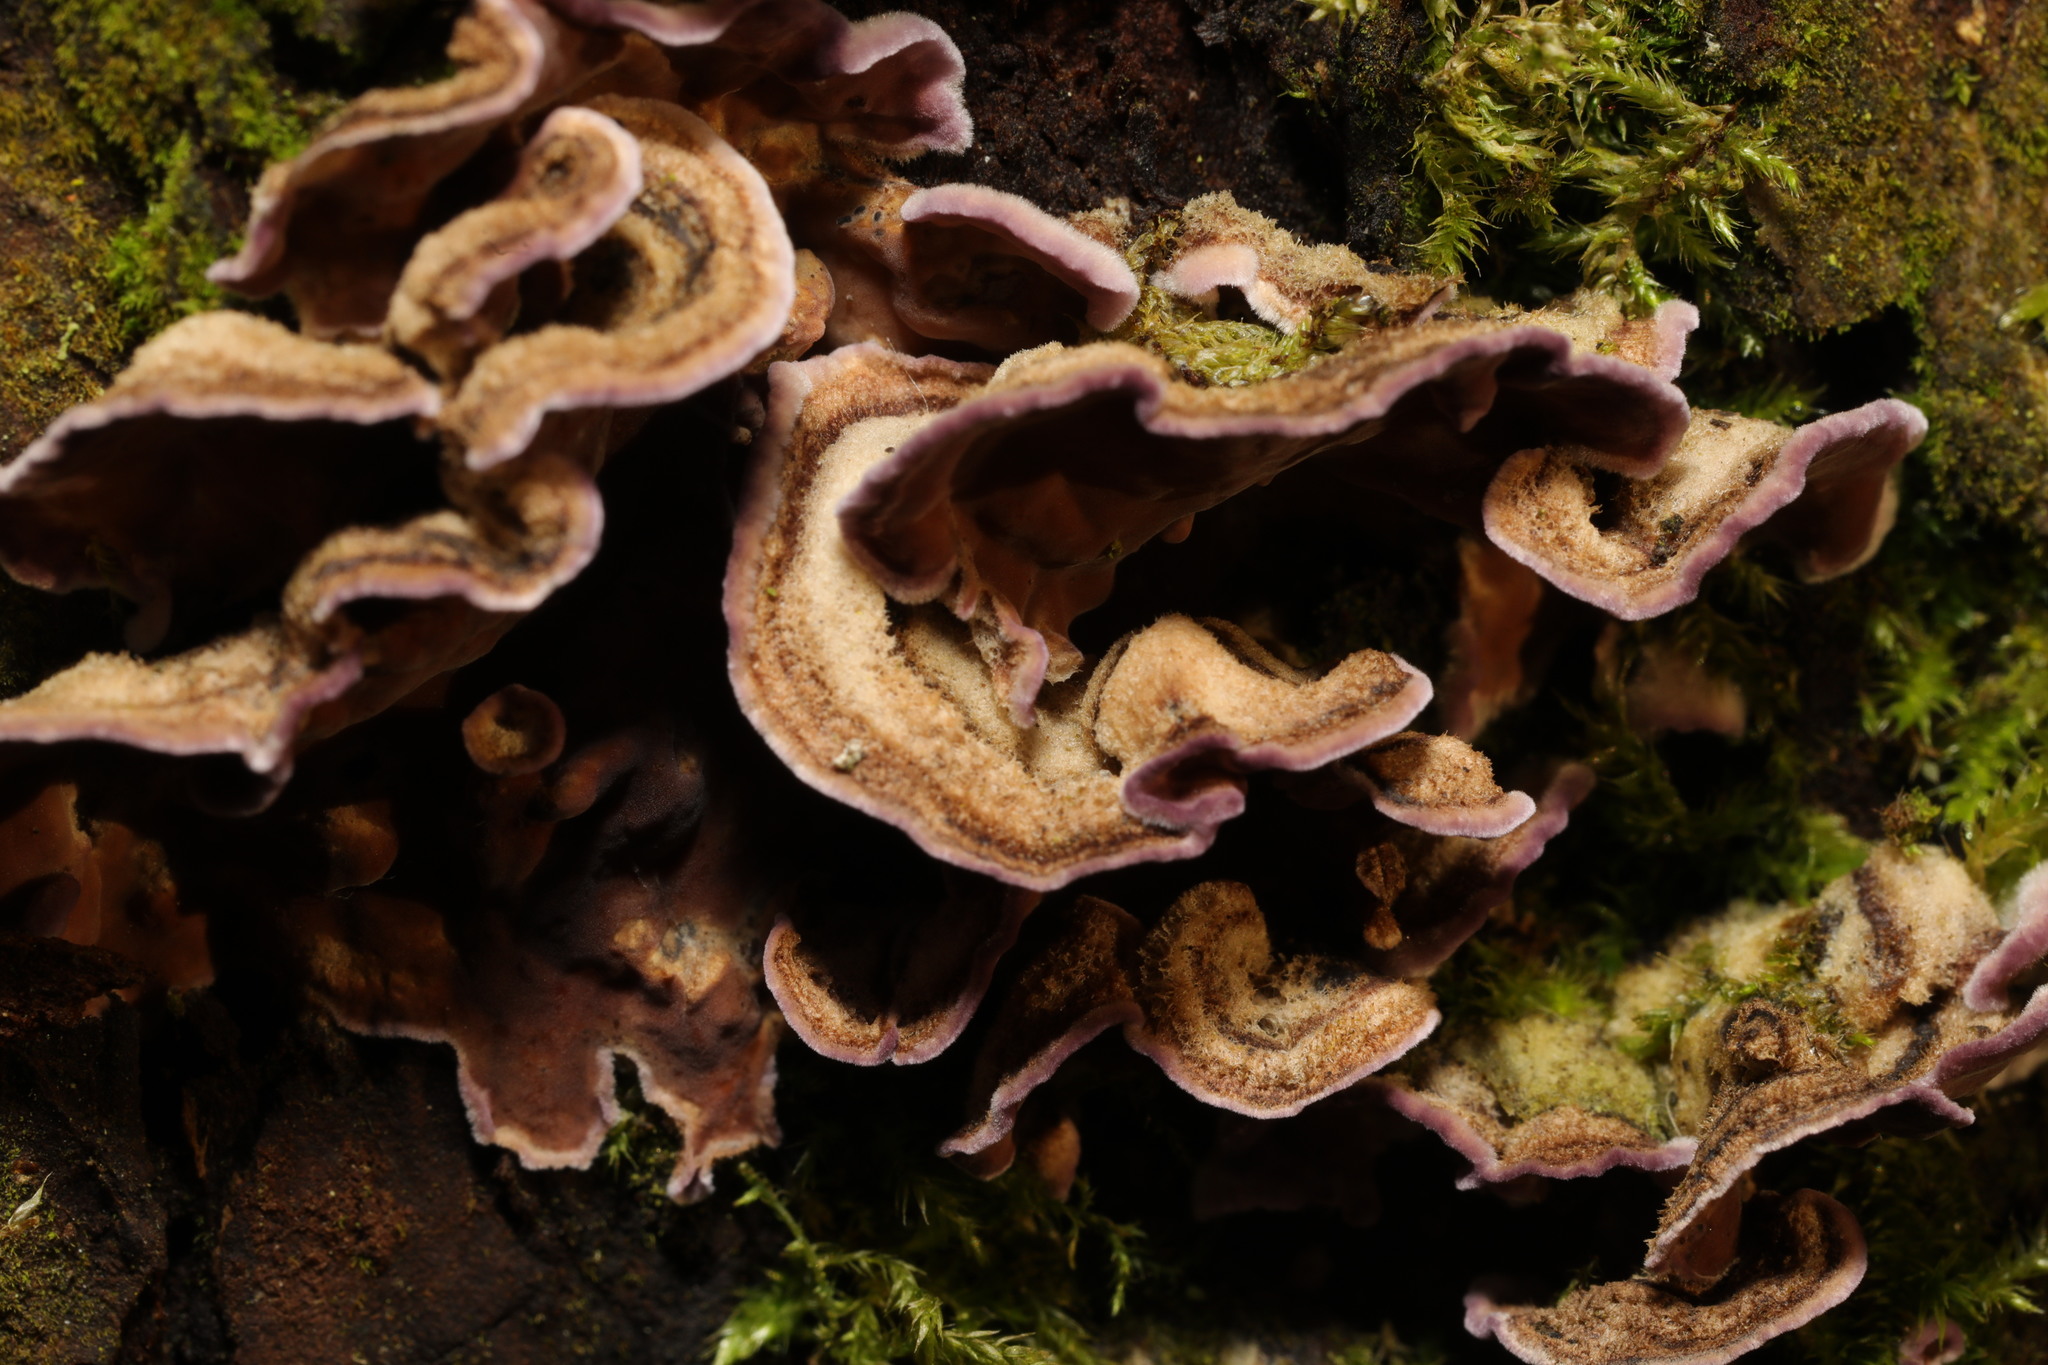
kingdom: Fungi
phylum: Basidiomycota
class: Agaricomycetes
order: Agaricales
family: Cyphellaceae
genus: Chondrostereum
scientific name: Chondrostereum purpureum
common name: Silver leaf disease
